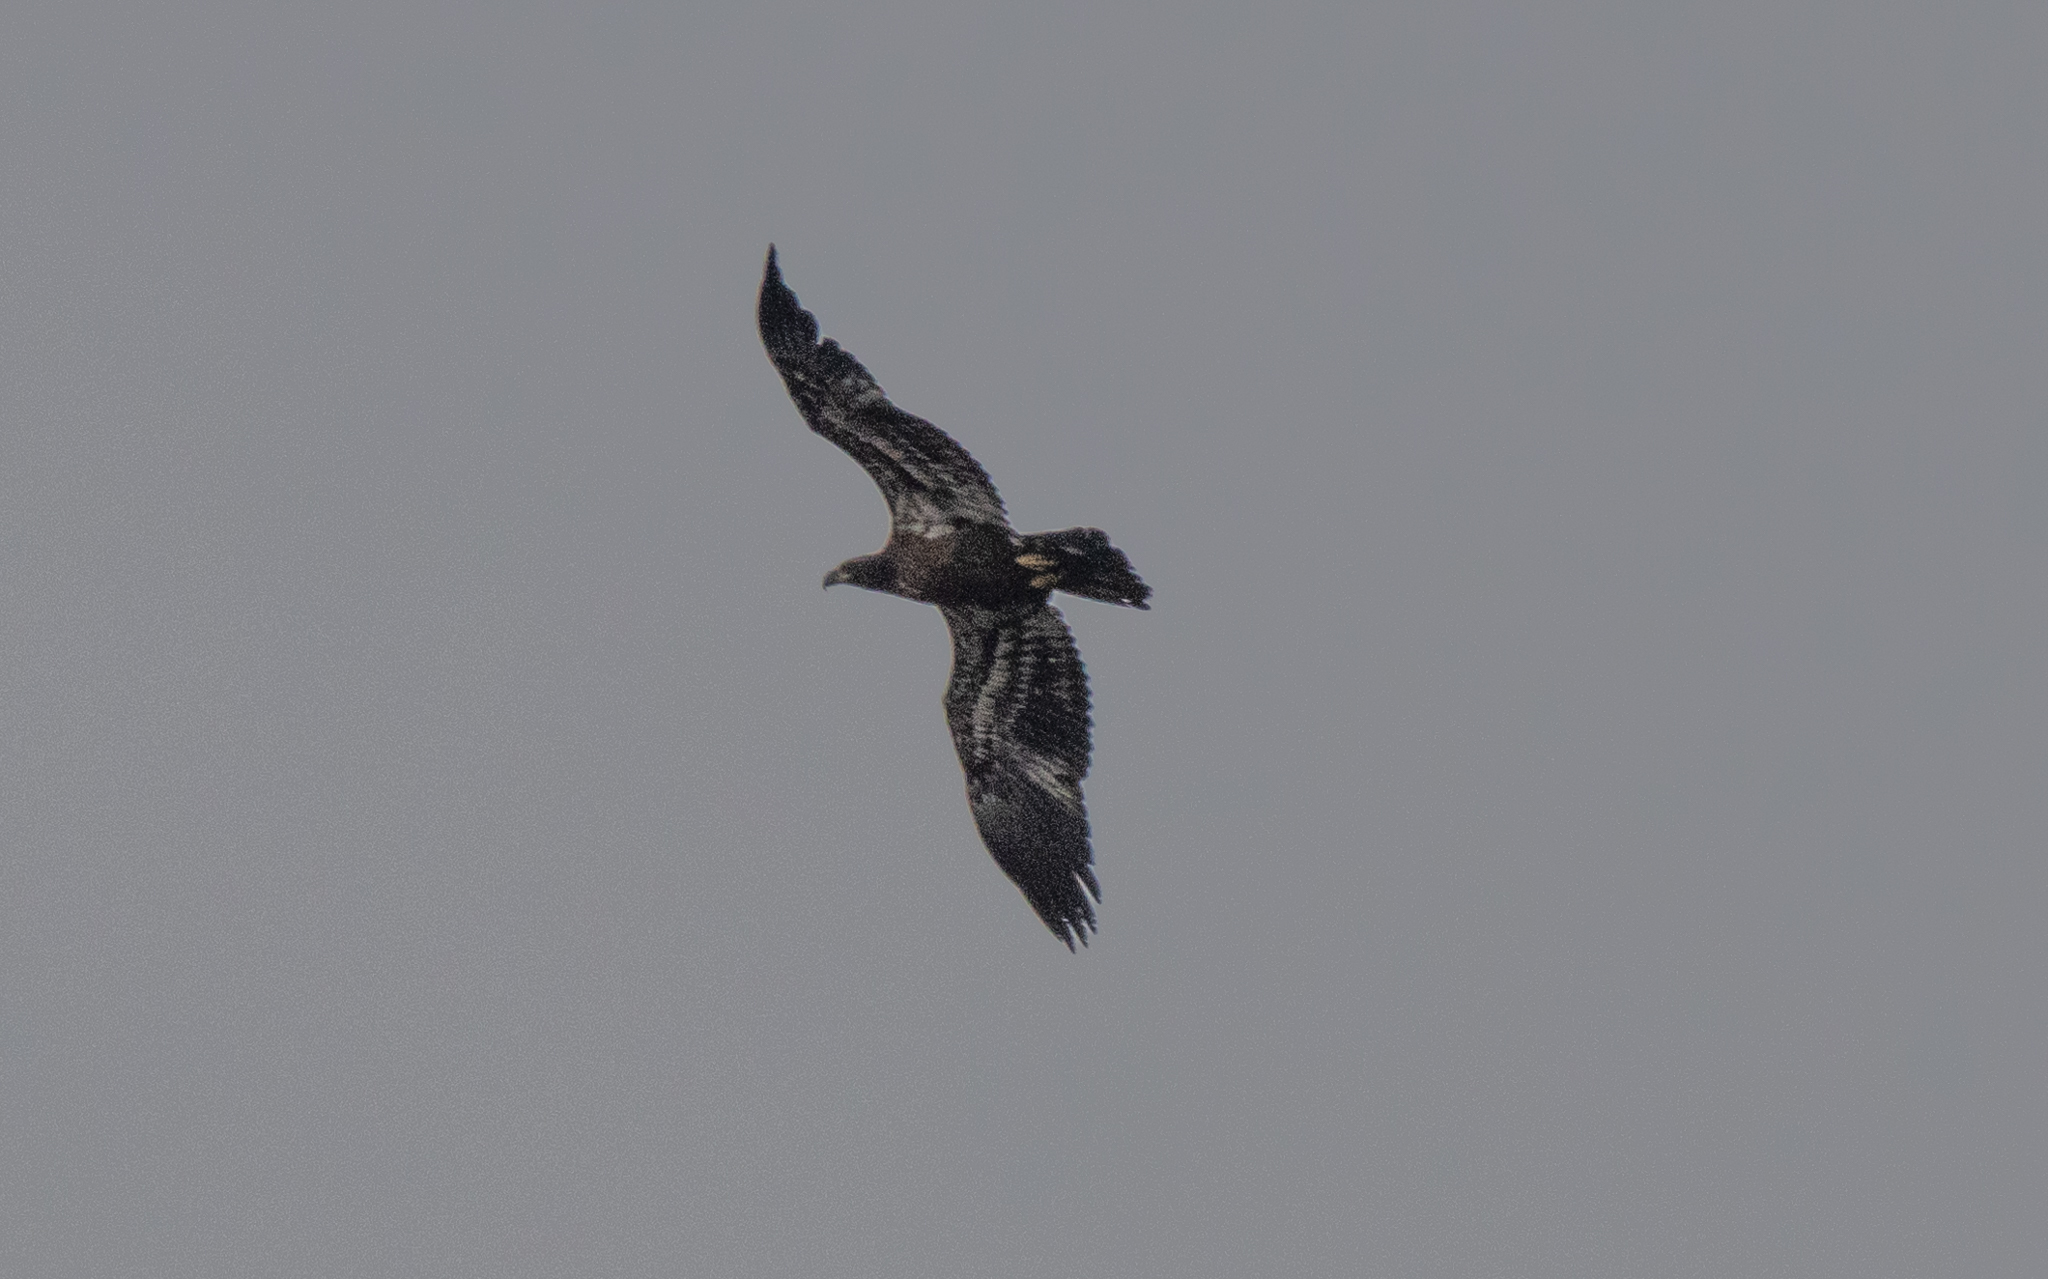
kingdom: Animalia
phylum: Chordata
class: Aves
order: Accipitriformes
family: Accipitridae
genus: Haliaeetus
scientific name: Haliaeetus leucocephalus
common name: Bald eagle
